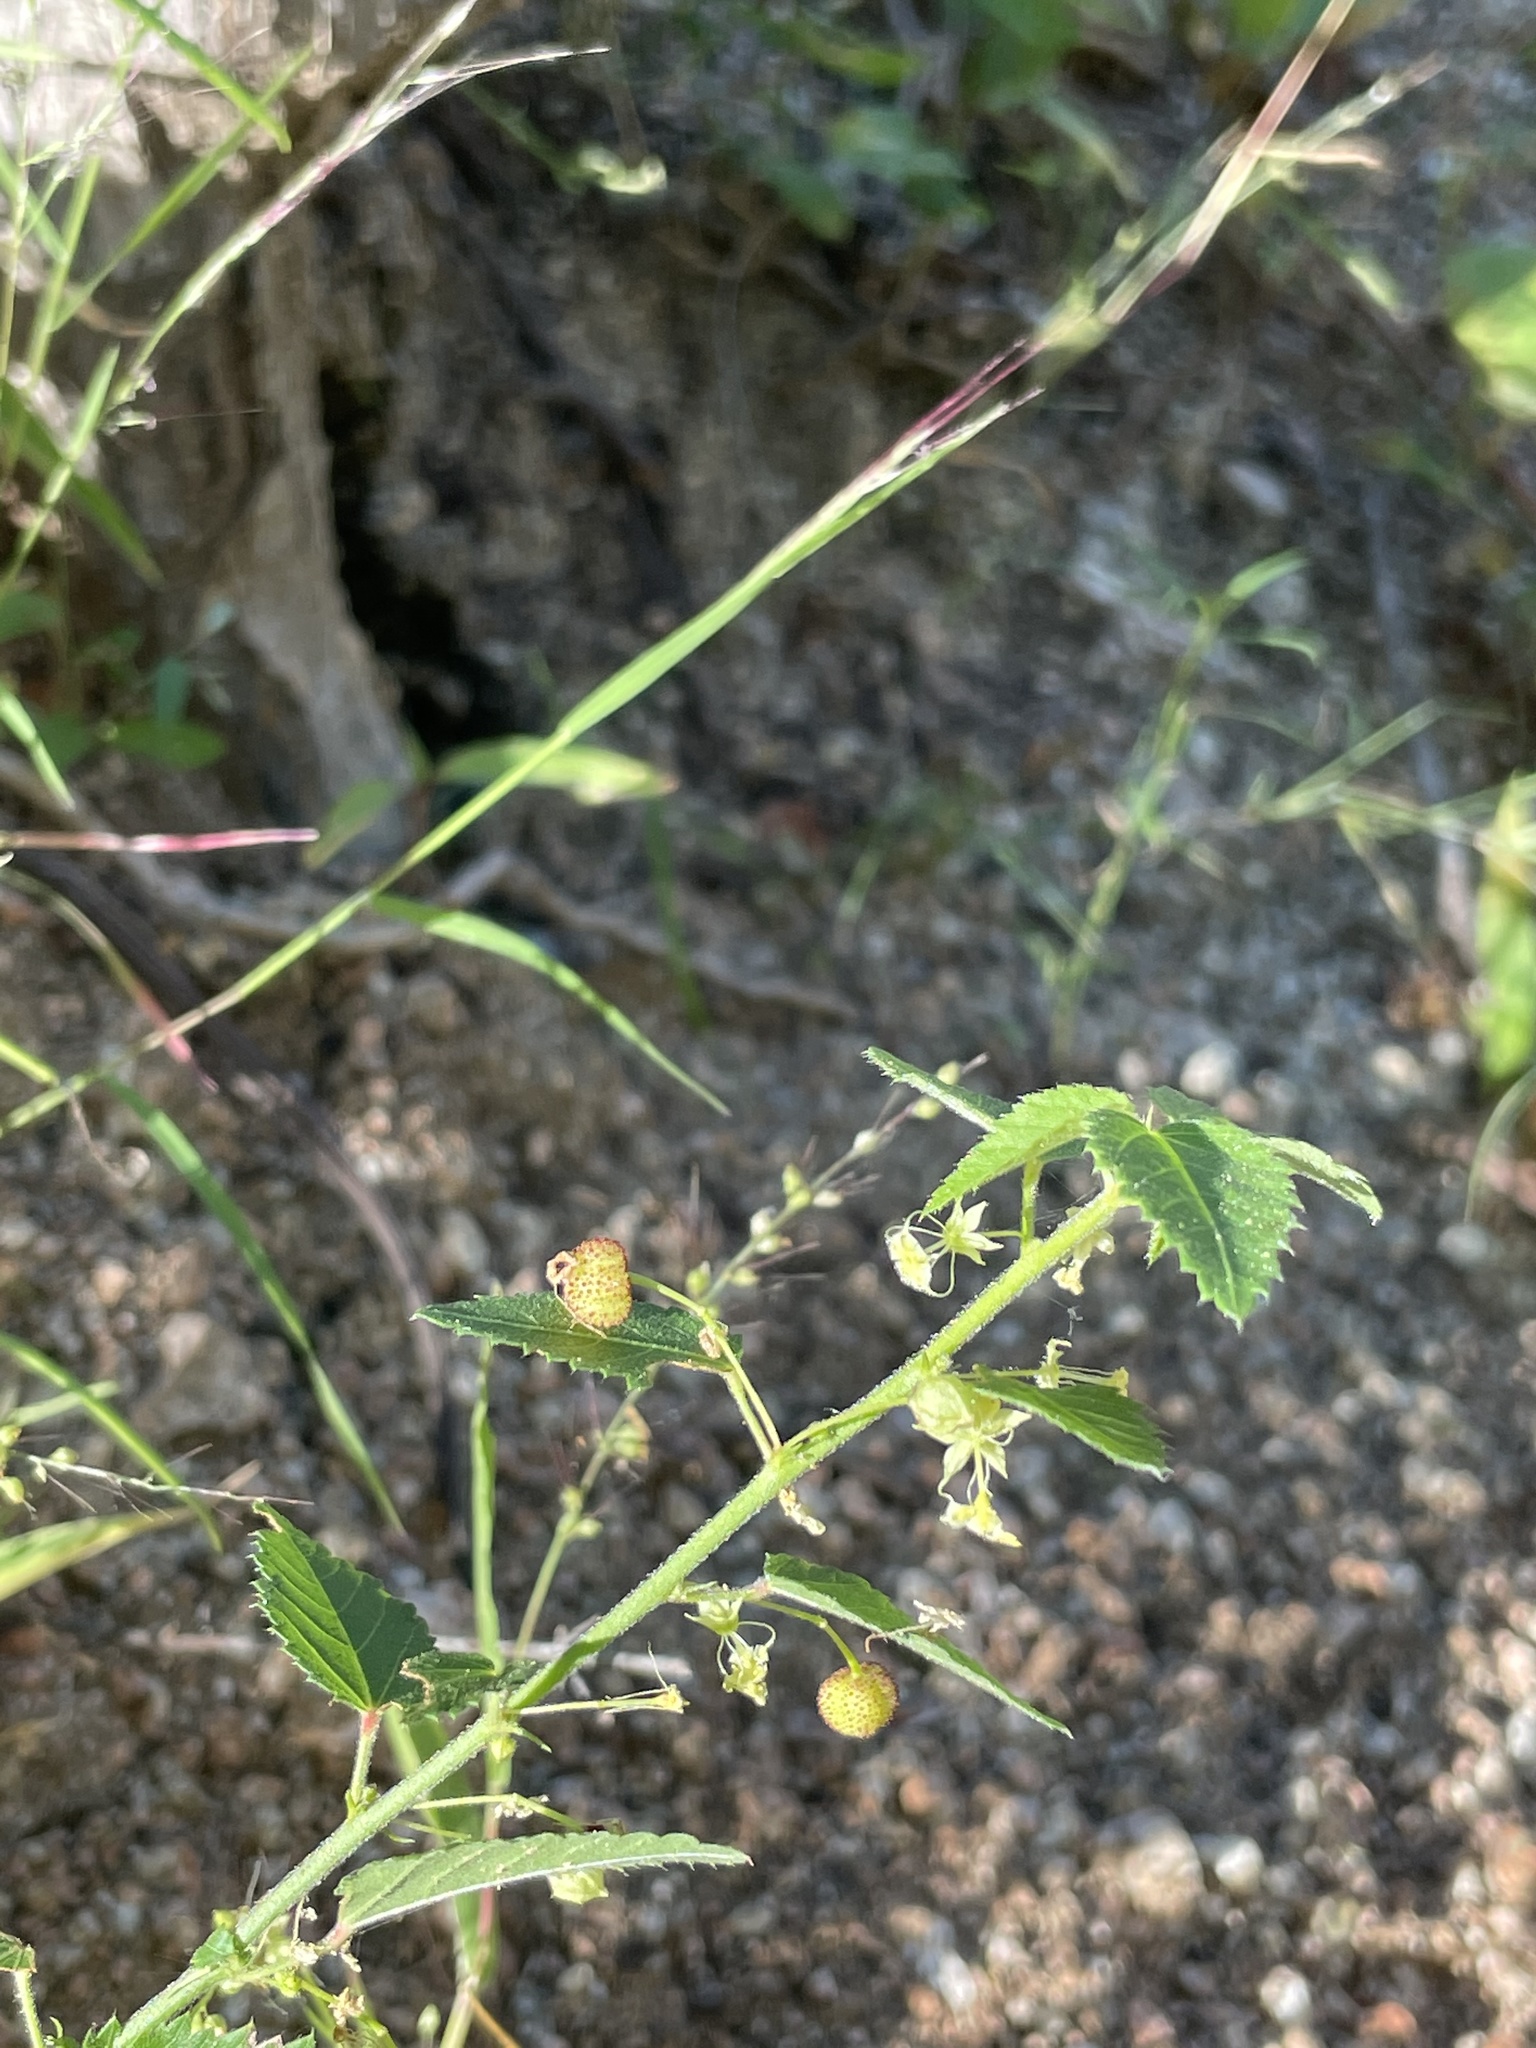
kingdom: Plantae
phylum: Tracheophyta
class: Magnoliopsida
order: Malvales
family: Malvaceae
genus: Ayenia
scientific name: Ayenia compacta
